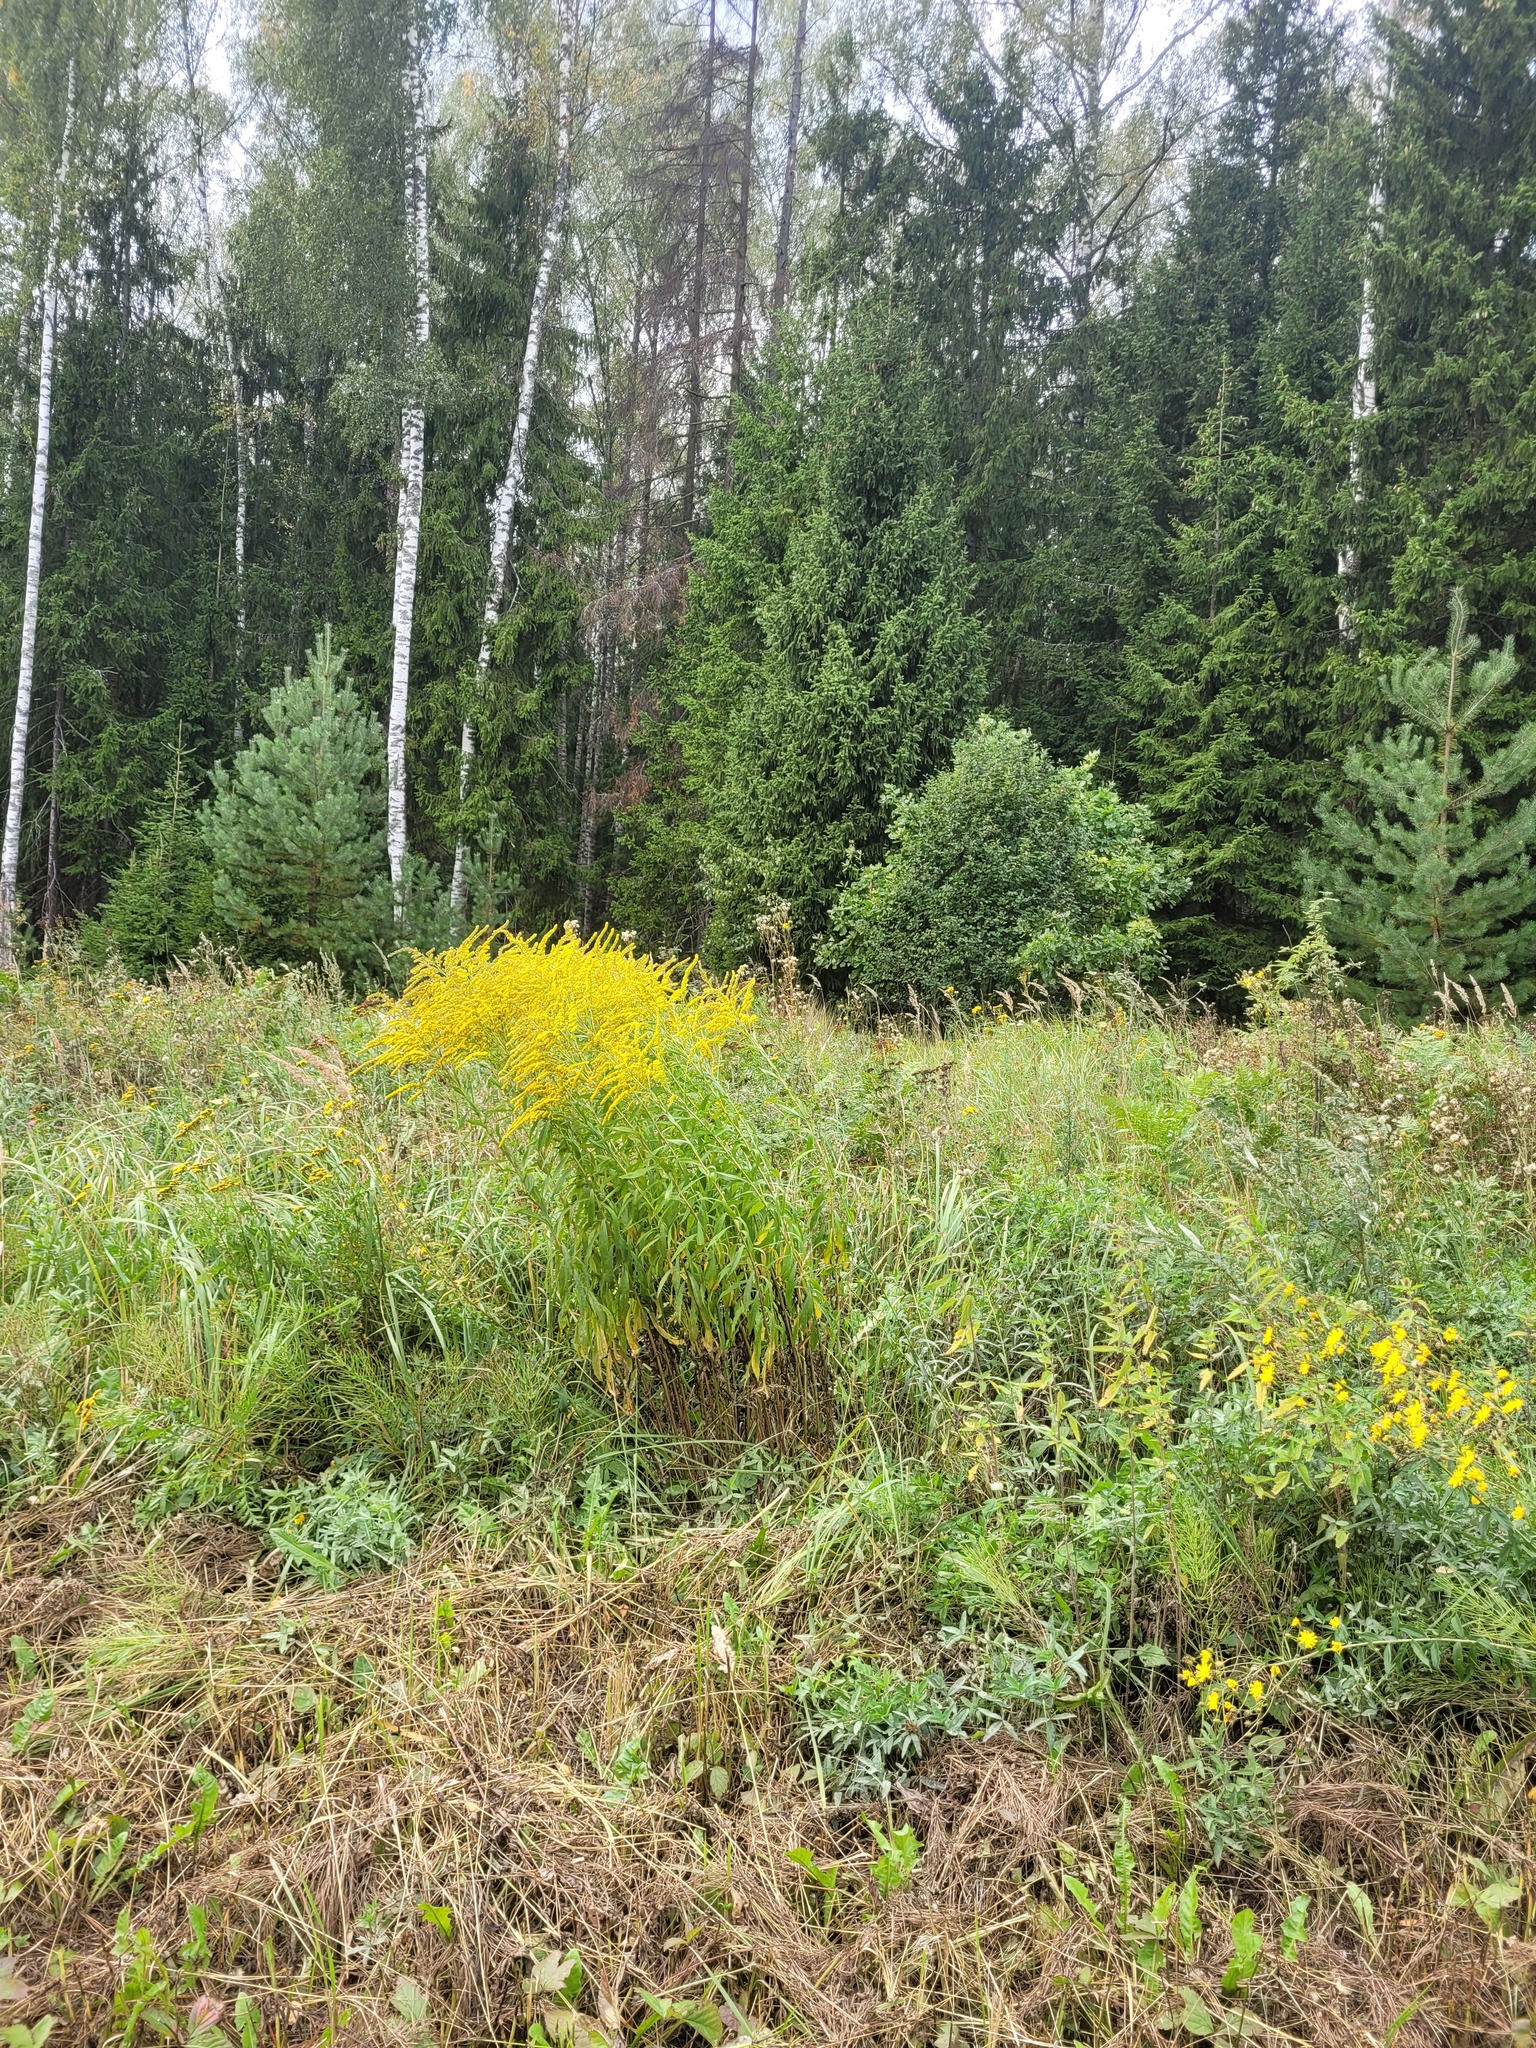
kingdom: Plantae
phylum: Tracheophyta
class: Magnoliopsida
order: Asterales
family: Asteraceae
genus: Solidago
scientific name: Solidago canadensis
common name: Canada goldenrod
